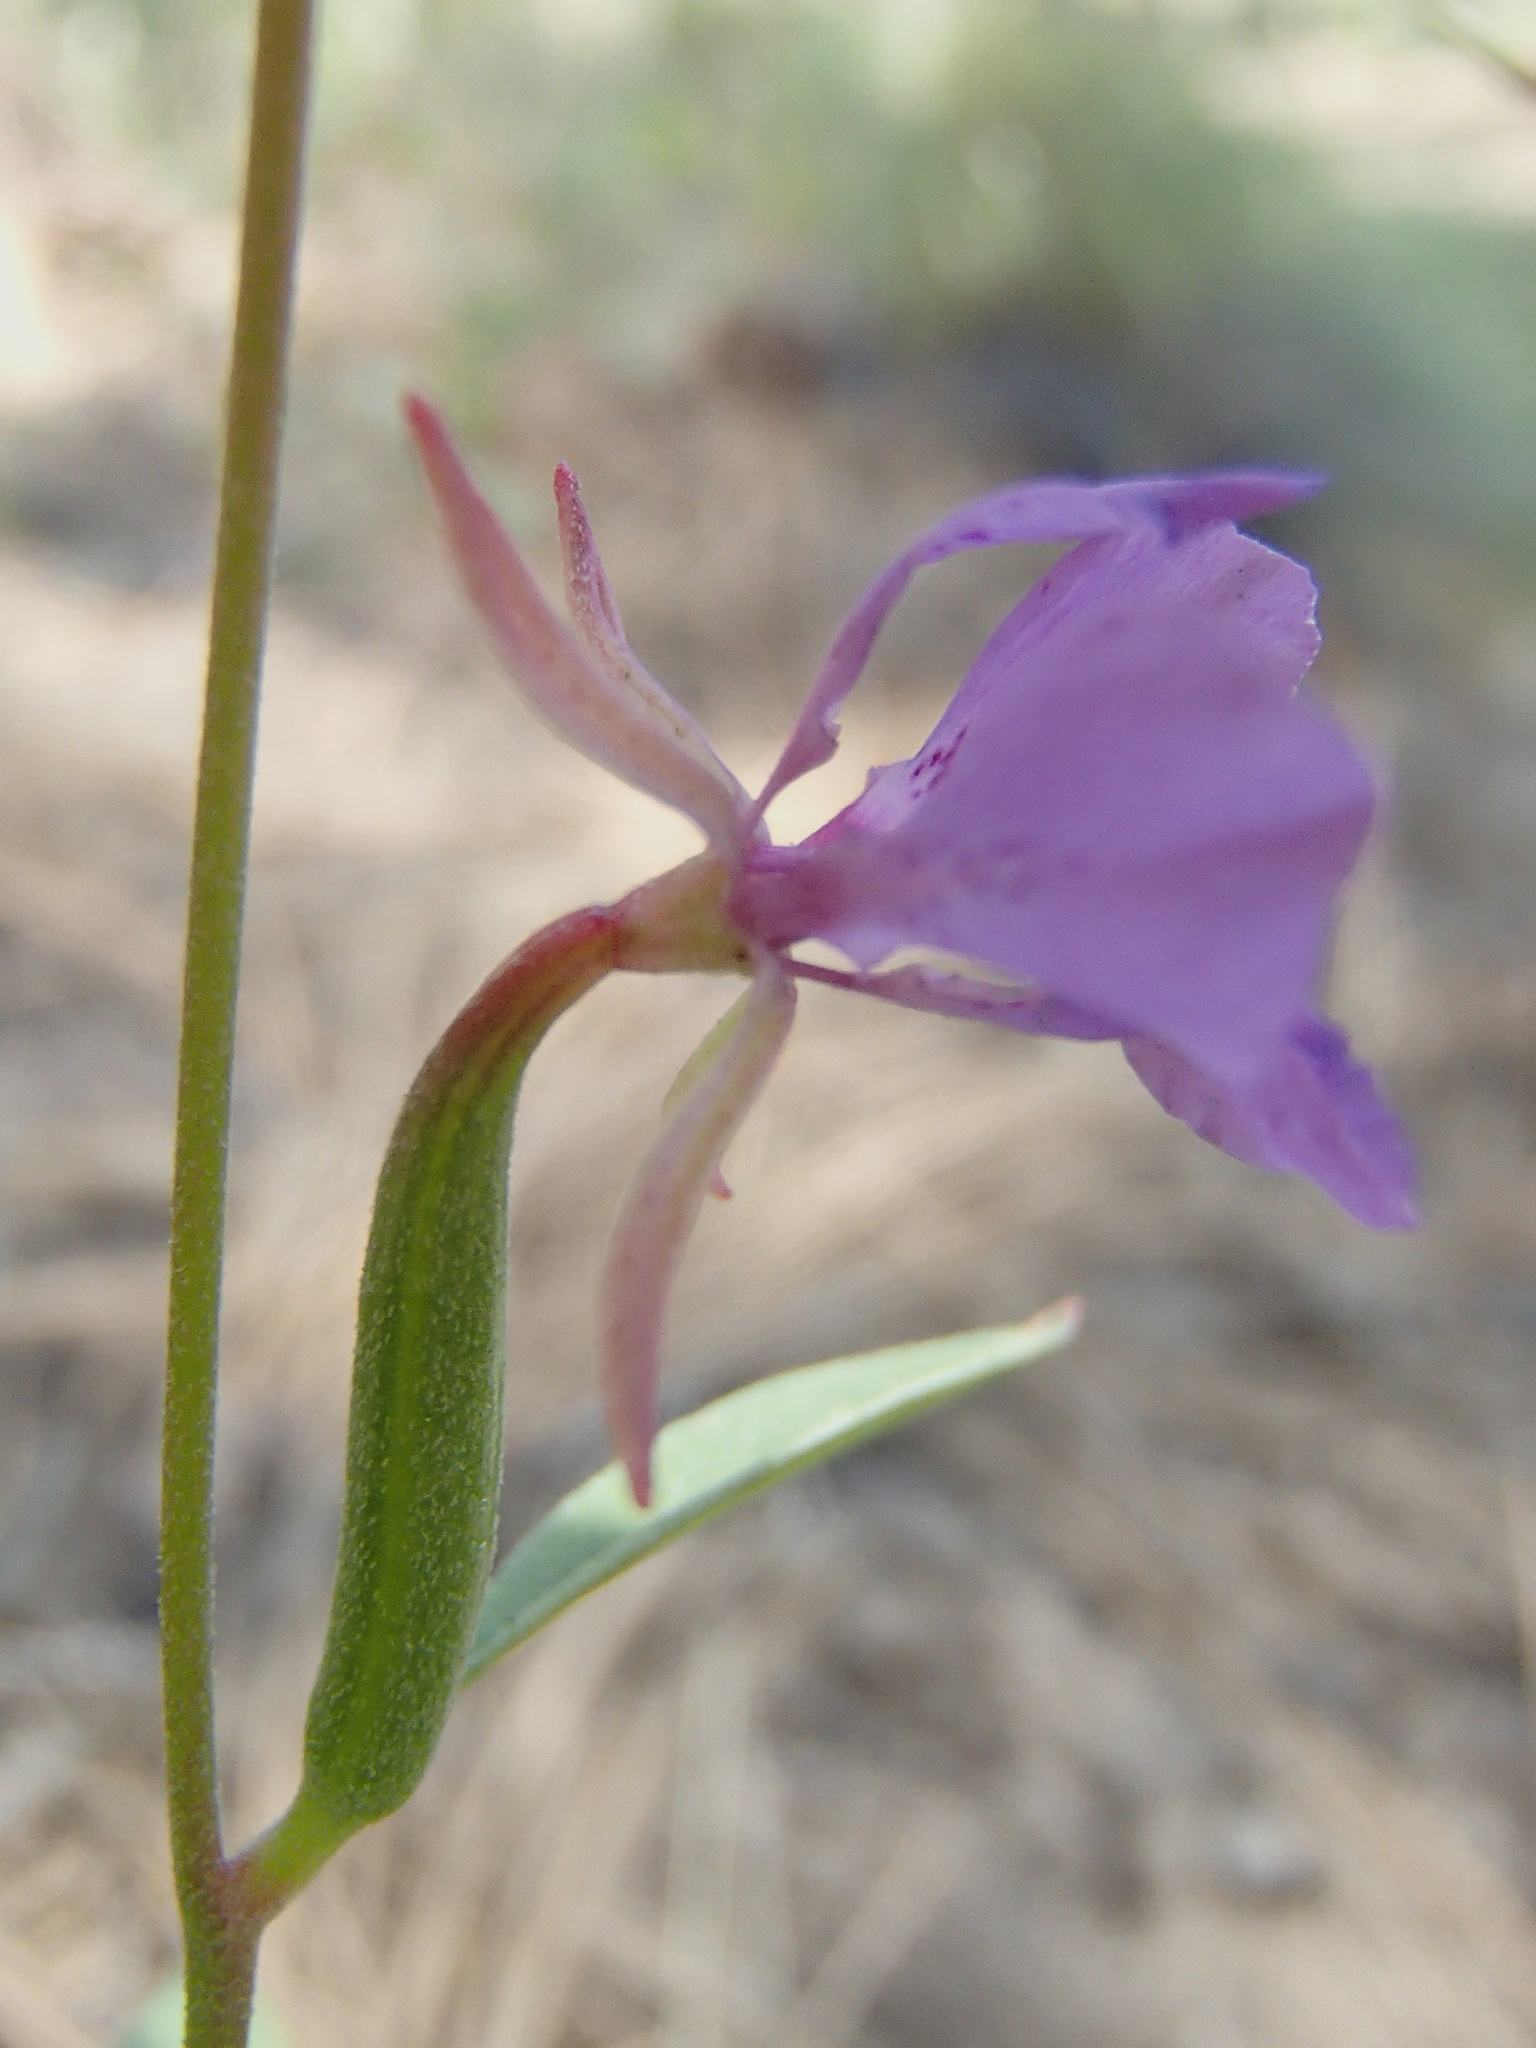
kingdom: Plantae
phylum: Tracheophyta
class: Magnoliopsida
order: Myrtales
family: Onagraceae
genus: Clarkia
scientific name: Clarkia rhomboidea
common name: Broadleaf clarkia
